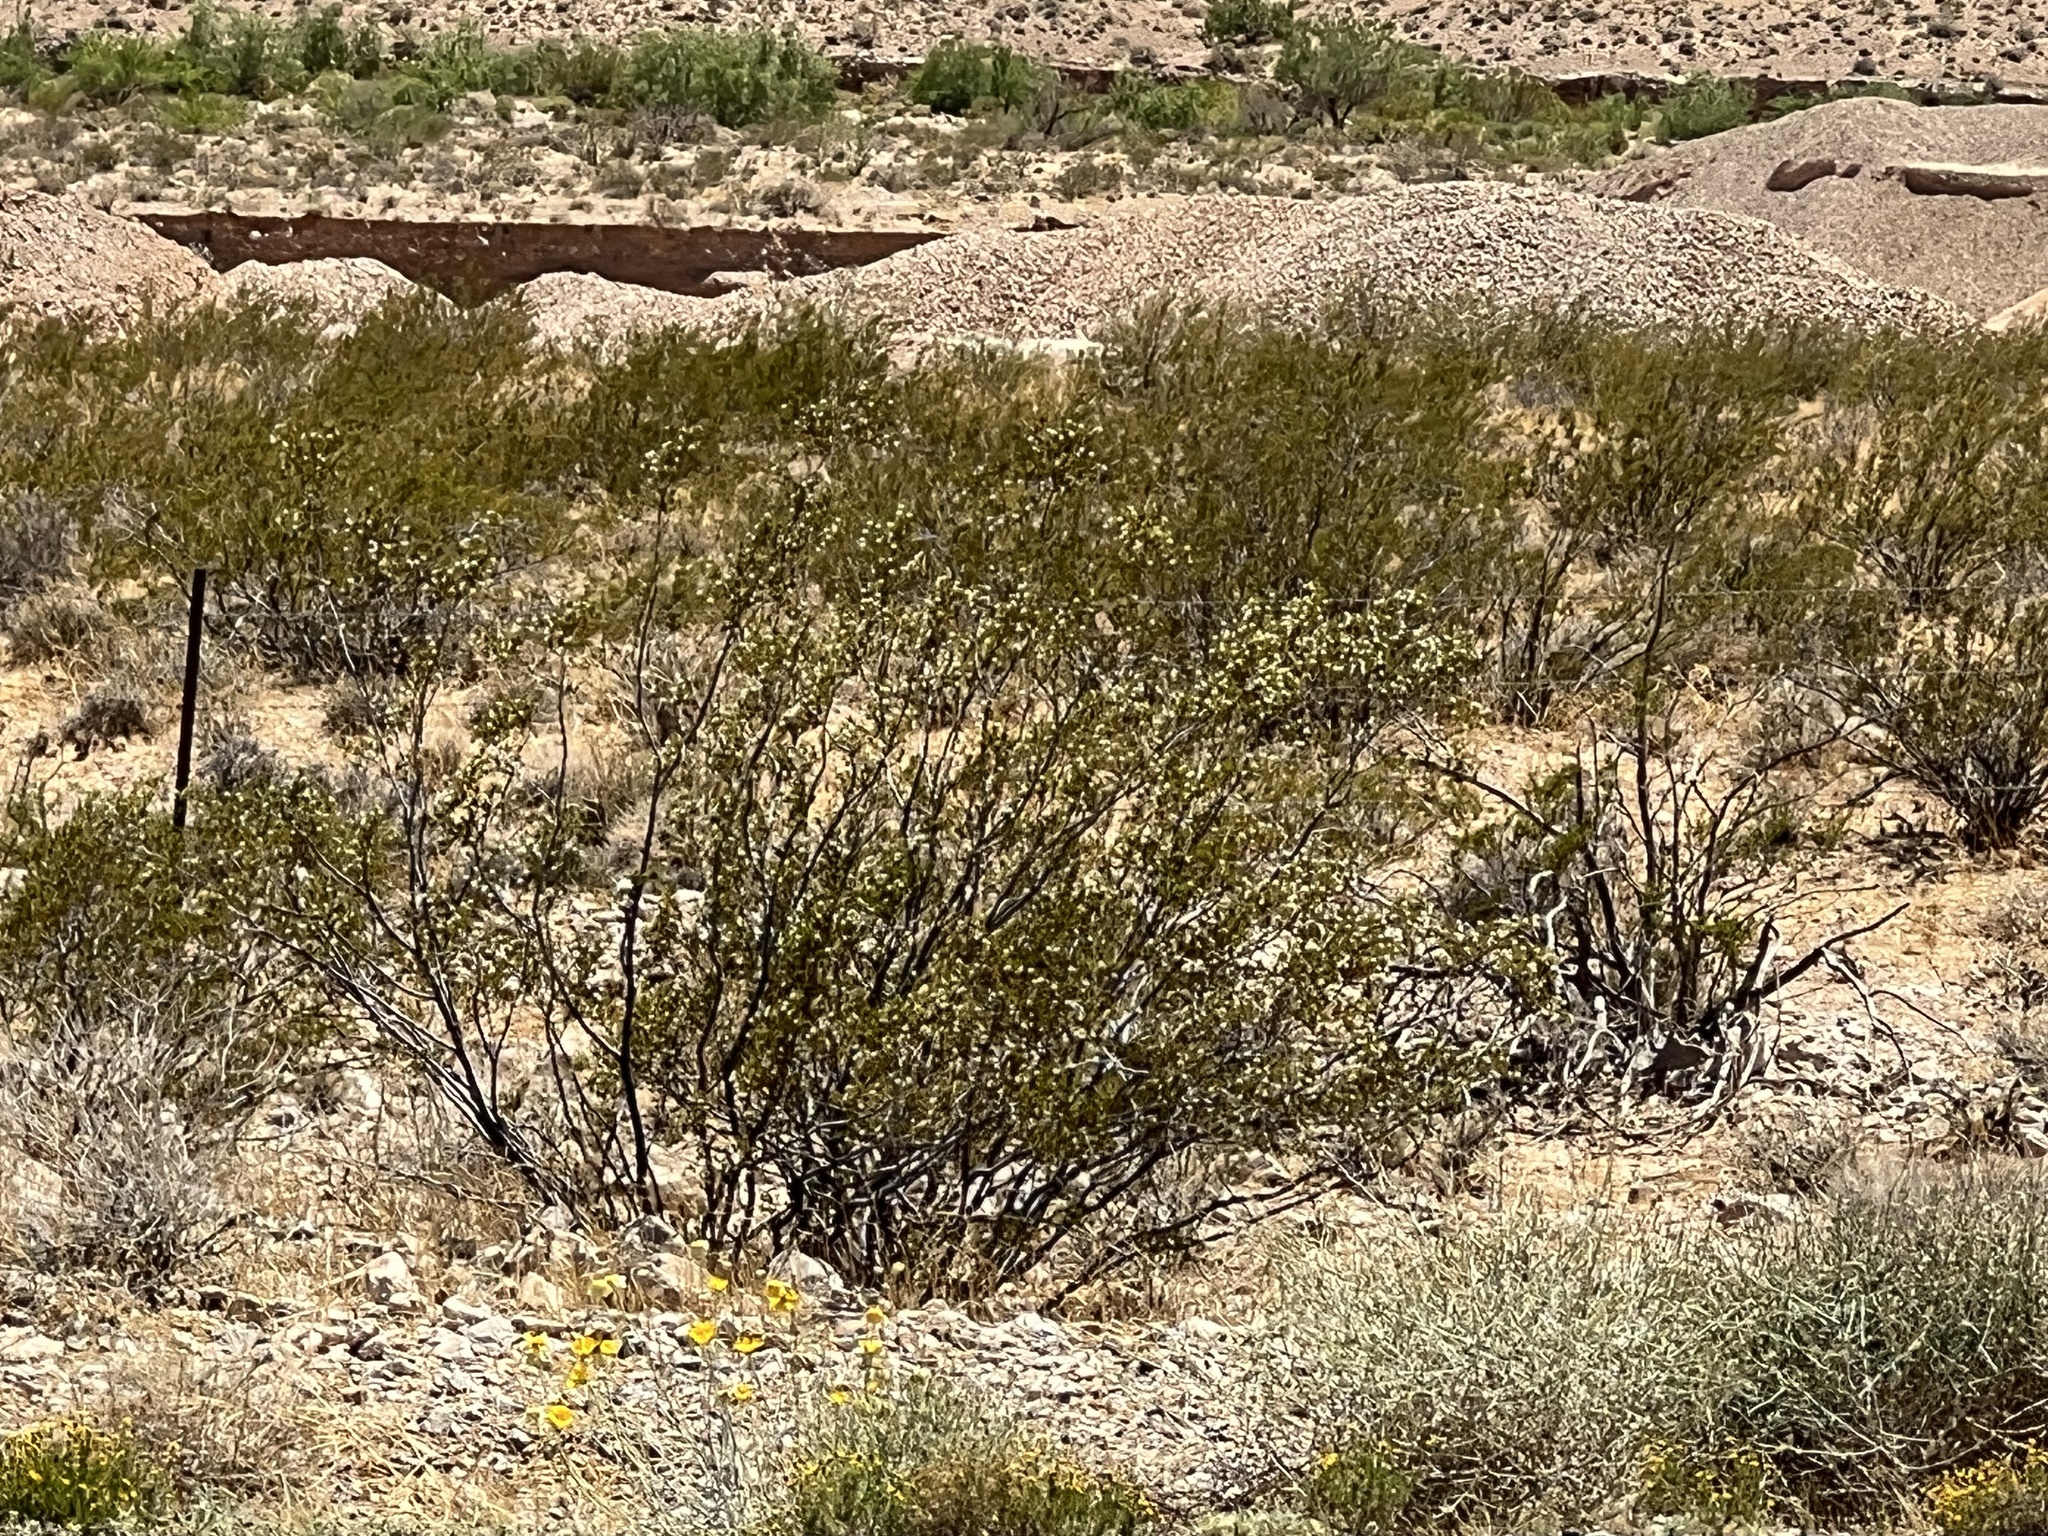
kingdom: Plantae
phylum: Tracheophyta
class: Magnoliopsida
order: Zygophyllales
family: Zygophyllaceae
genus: Larrea
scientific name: Larrea tridentata
